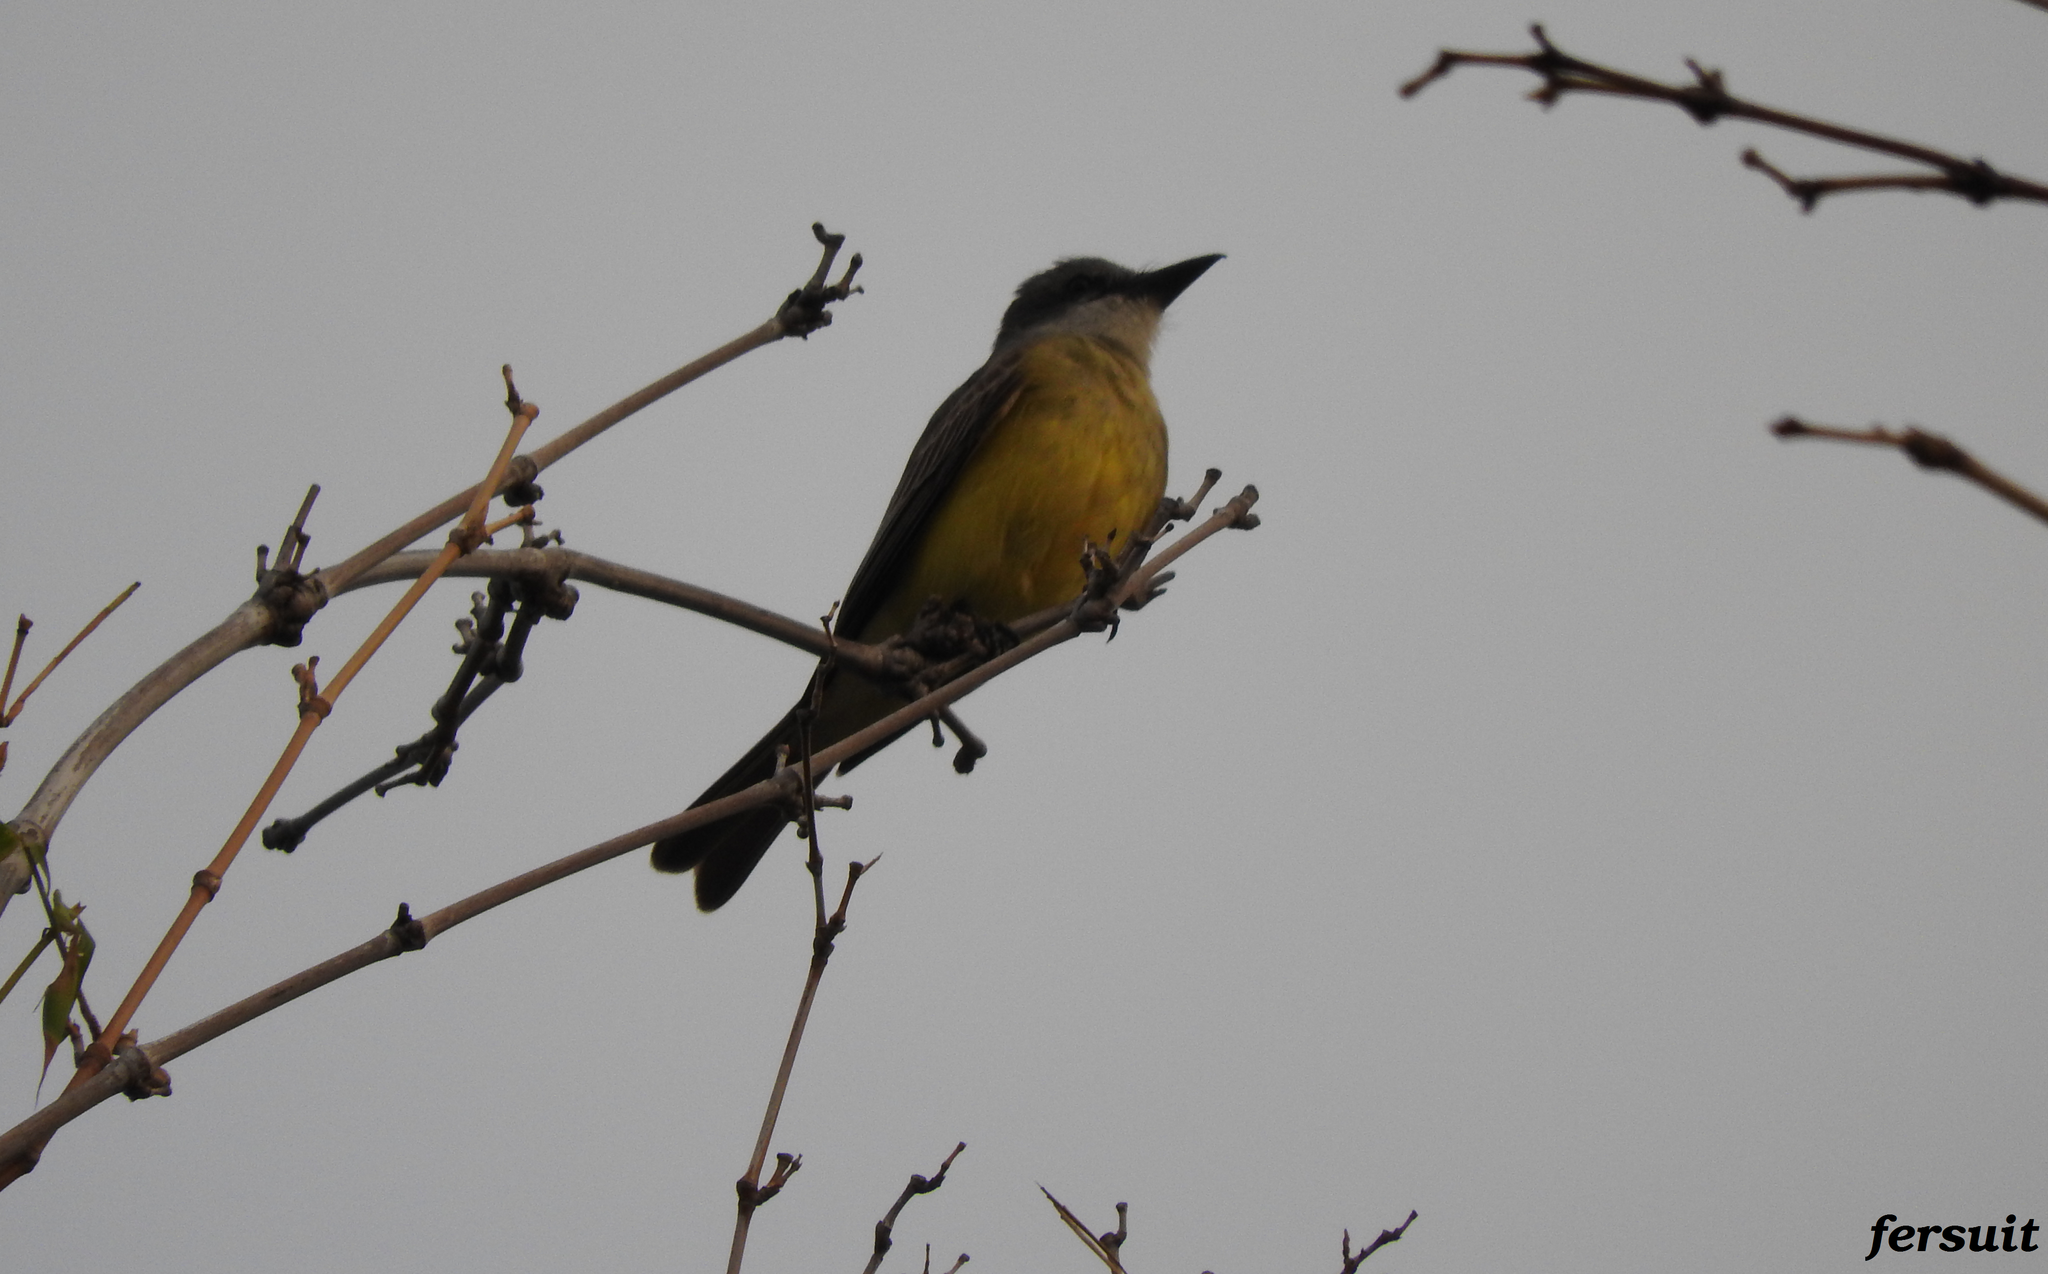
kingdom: Animalia
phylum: Chordata
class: Aves
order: Passeriformes
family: Tyrannidae
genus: Tyrannus
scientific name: Tyrannus melancholicus
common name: Tropical kingbird
